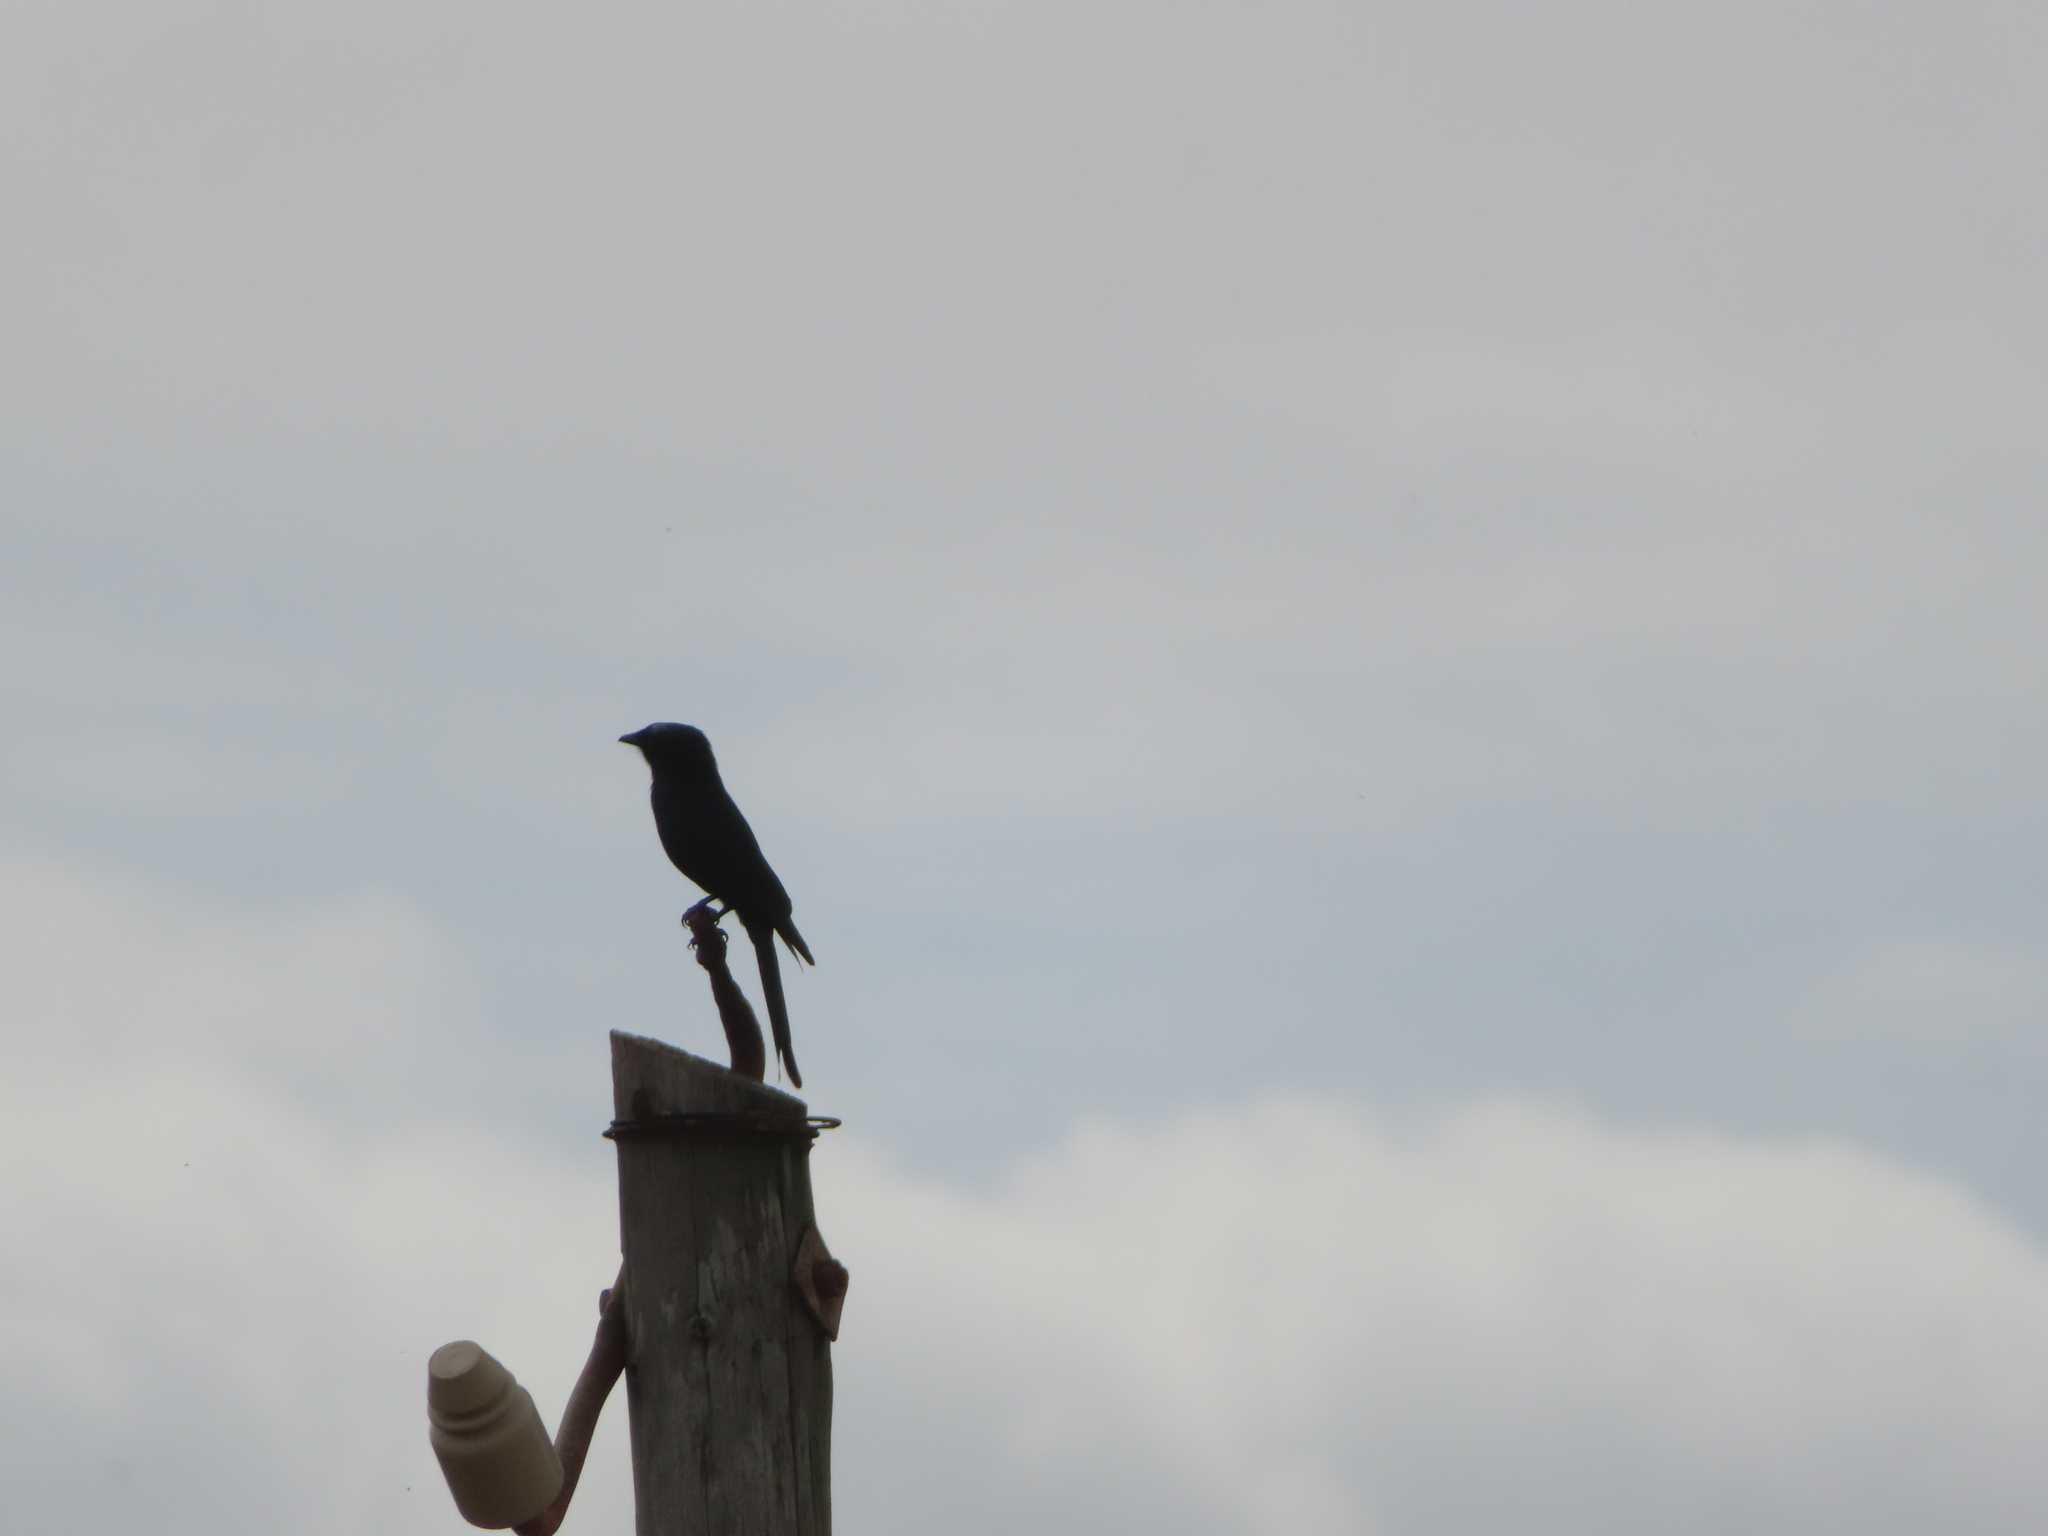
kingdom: Animalia
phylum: Chordata
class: Aves
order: Passeriformes
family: Dicruridae
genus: Dicrurus
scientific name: Dicrurus adsimilis
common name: Fork-tailed drongo
